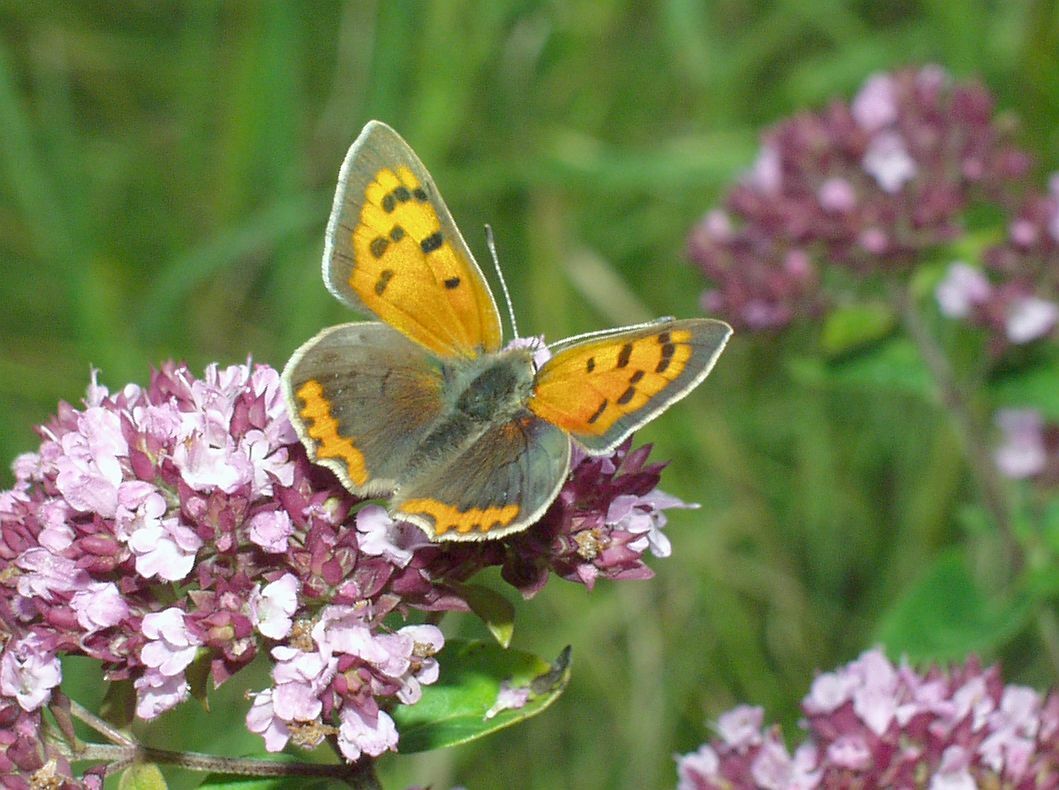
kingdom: Animalia
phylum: Arthropoda
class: Insecta
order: Lepidoptera
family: Lycaenidae
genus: Lycaena
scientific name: Lycaena phlaeas
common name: Small copper
